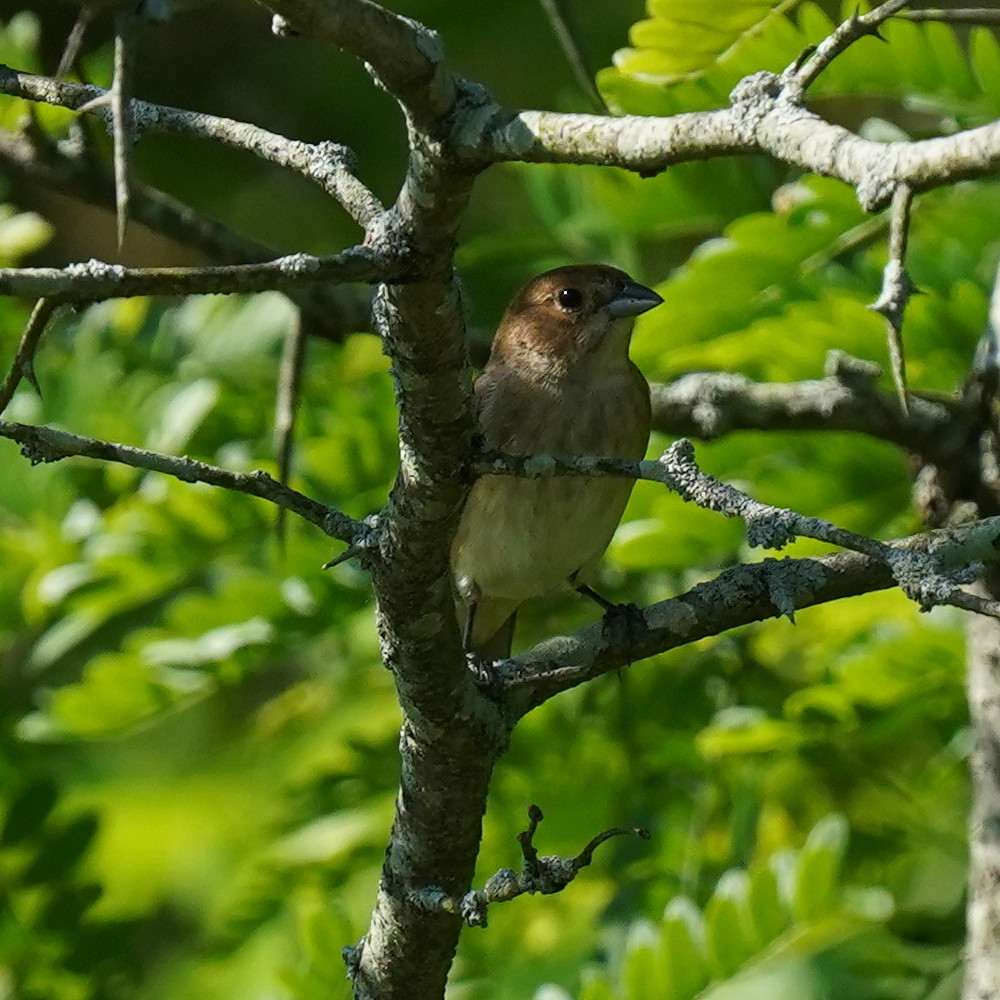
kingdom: Animalia
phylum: Chordata
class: Aves
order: Passeriformes
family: Cardinalidae
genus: Passerina
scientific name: Passerina cyanea
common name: Indigo bunting
